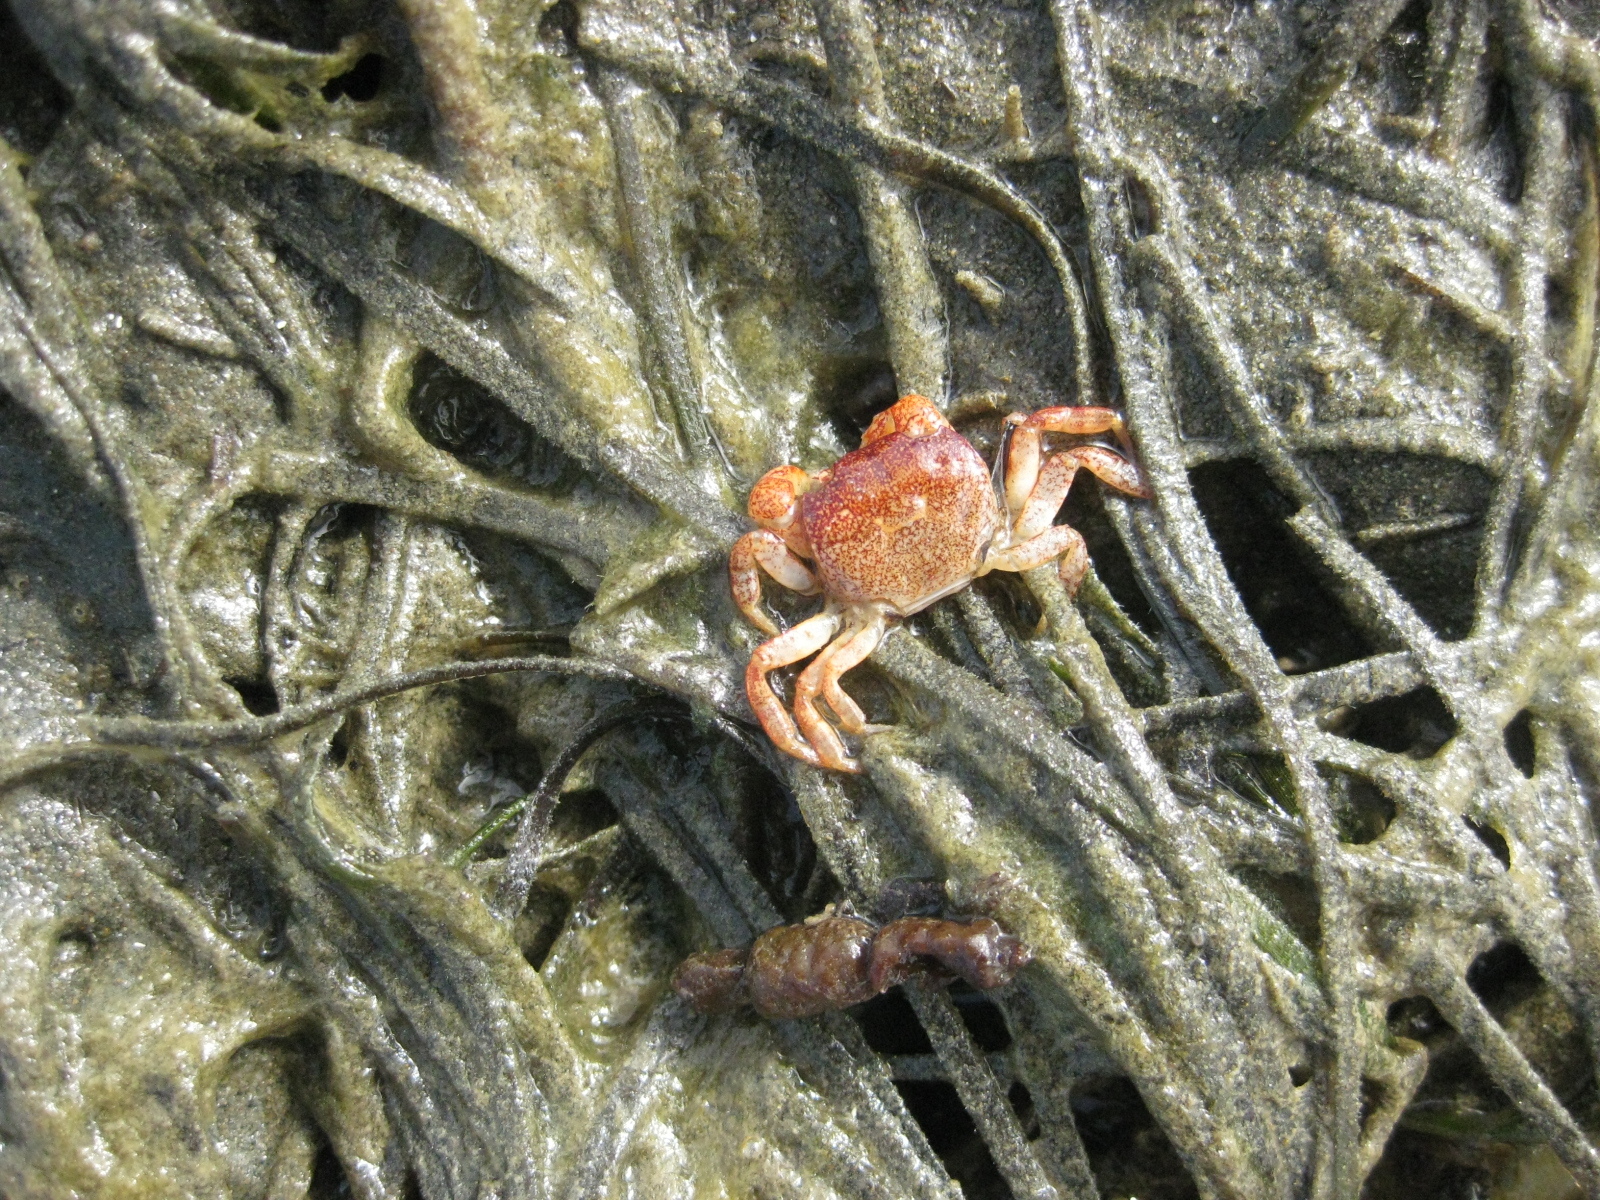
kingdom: Animalia
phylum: Arthropoda
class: Malacostraca
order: Decapoda
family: Varunidae
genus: Cyclograpsus
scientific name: Cyclograpsus lavauxi
